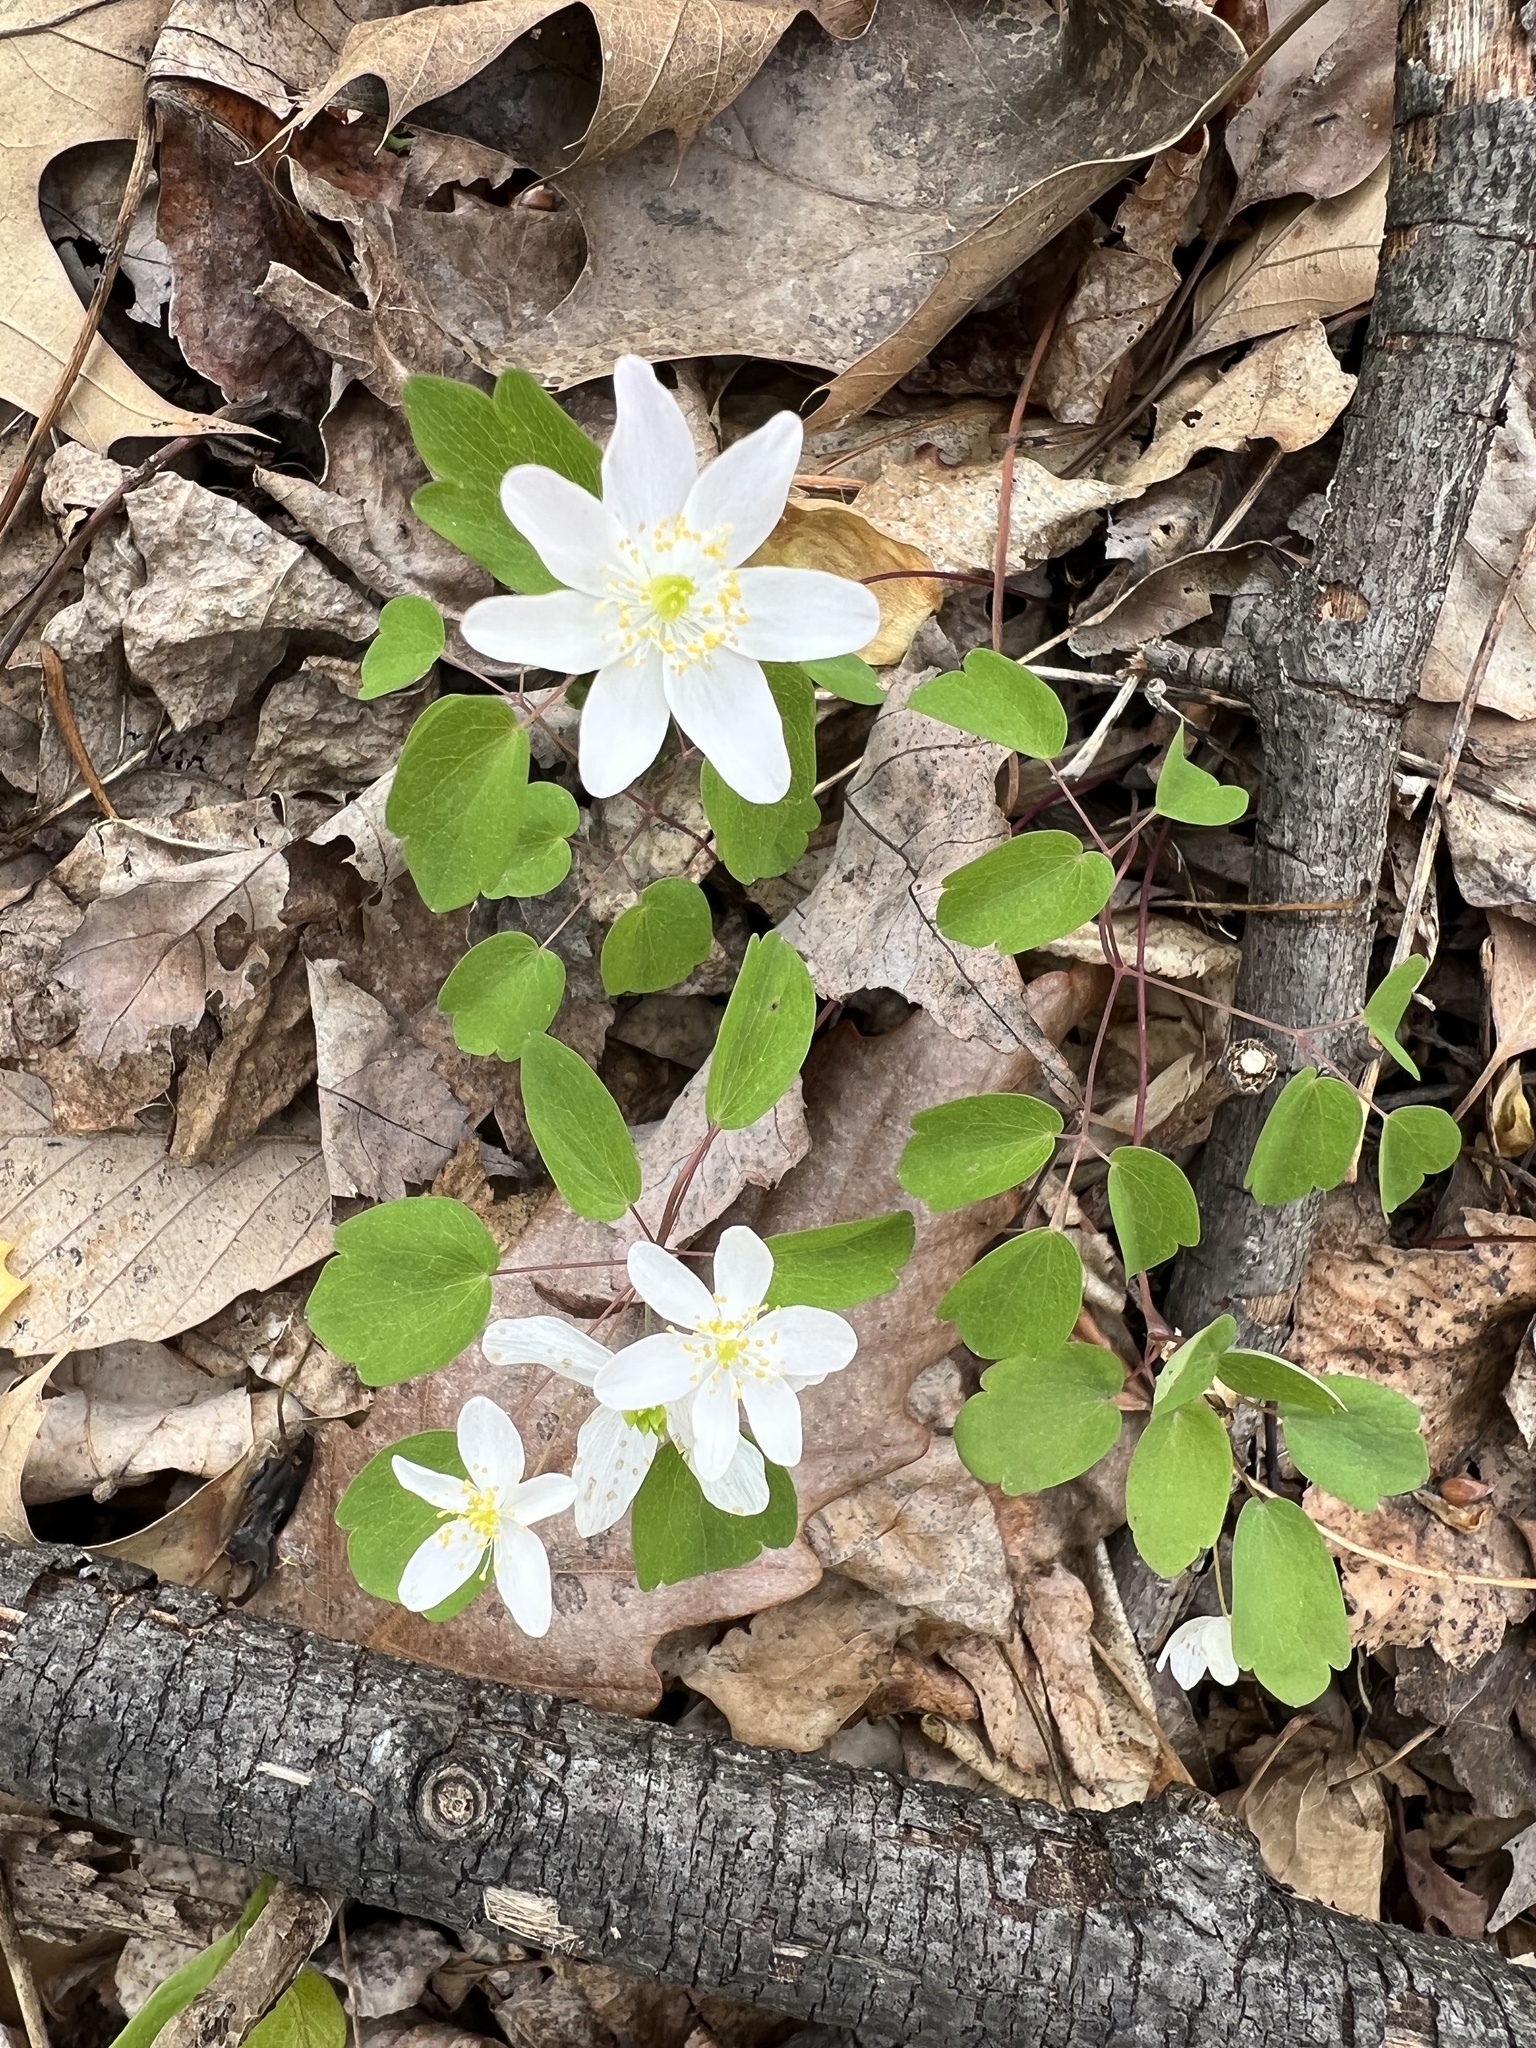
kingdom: Plantae
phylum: Tracheophyta
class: Magnoliopsida
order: Ranunculales
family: Ranunculaceae
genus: Thalictrum
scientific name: Thalictrum thalictroides
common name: Rue-anemone
